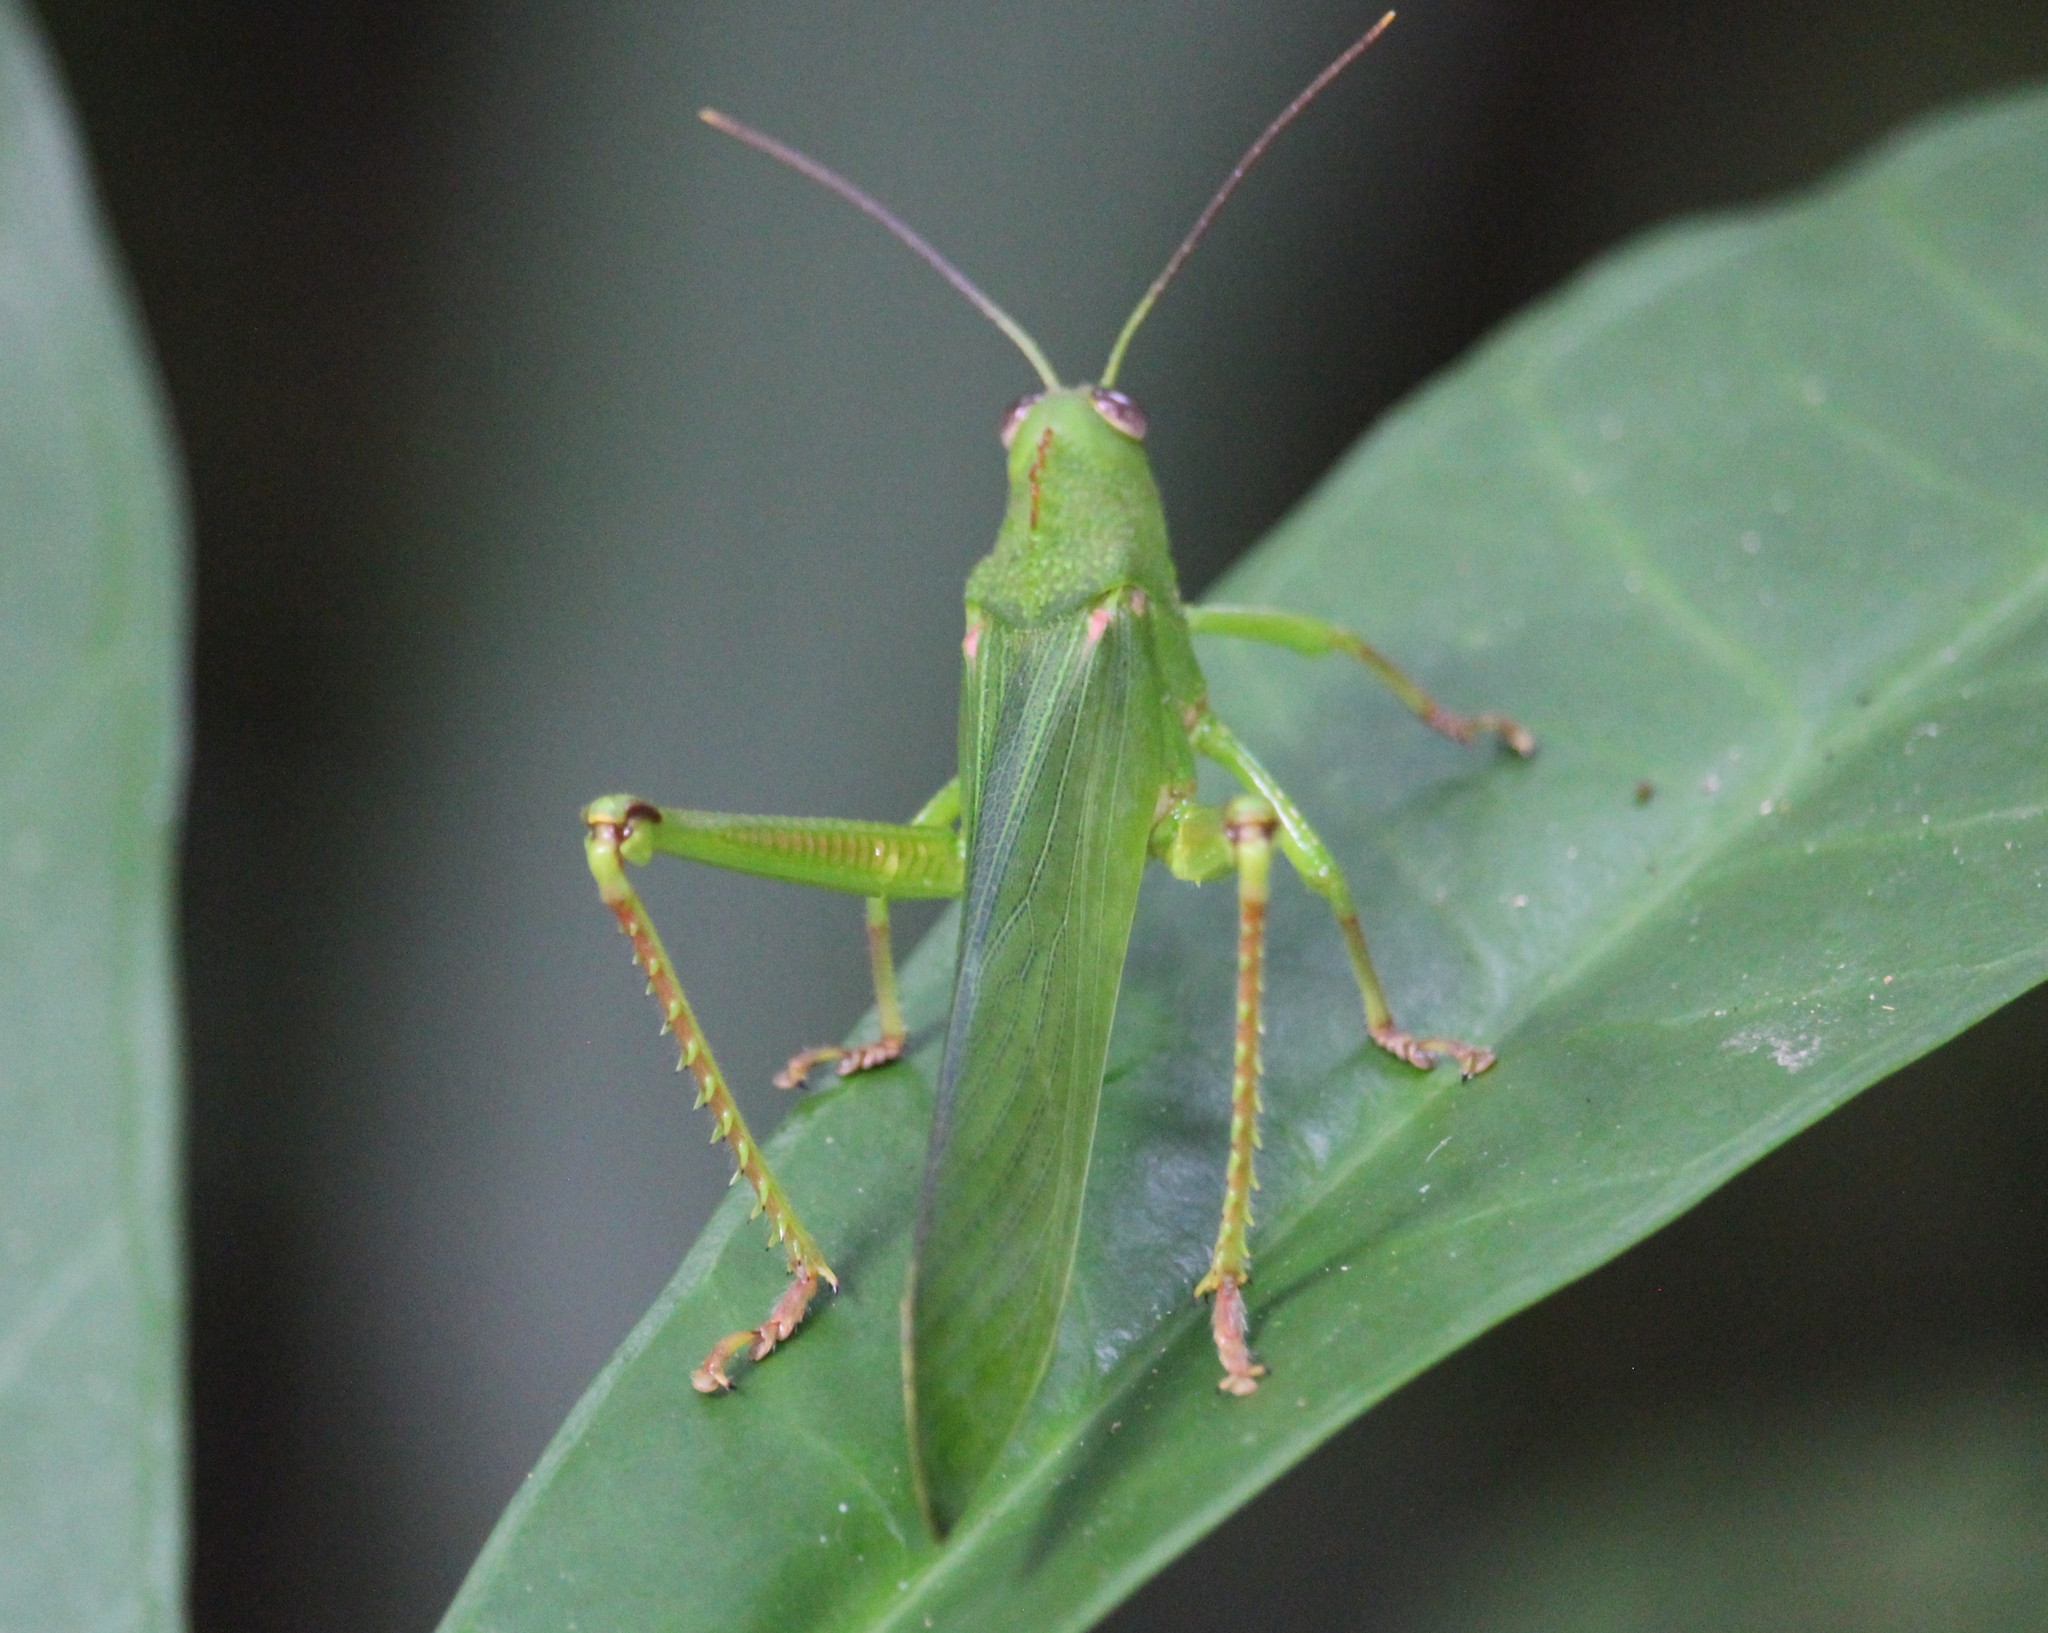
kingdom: Animalia
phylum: Arthropoda
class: Insecta
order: Orthoptera
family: Romaleidae
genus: Titanacris
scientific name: Titanacris velazquezii
